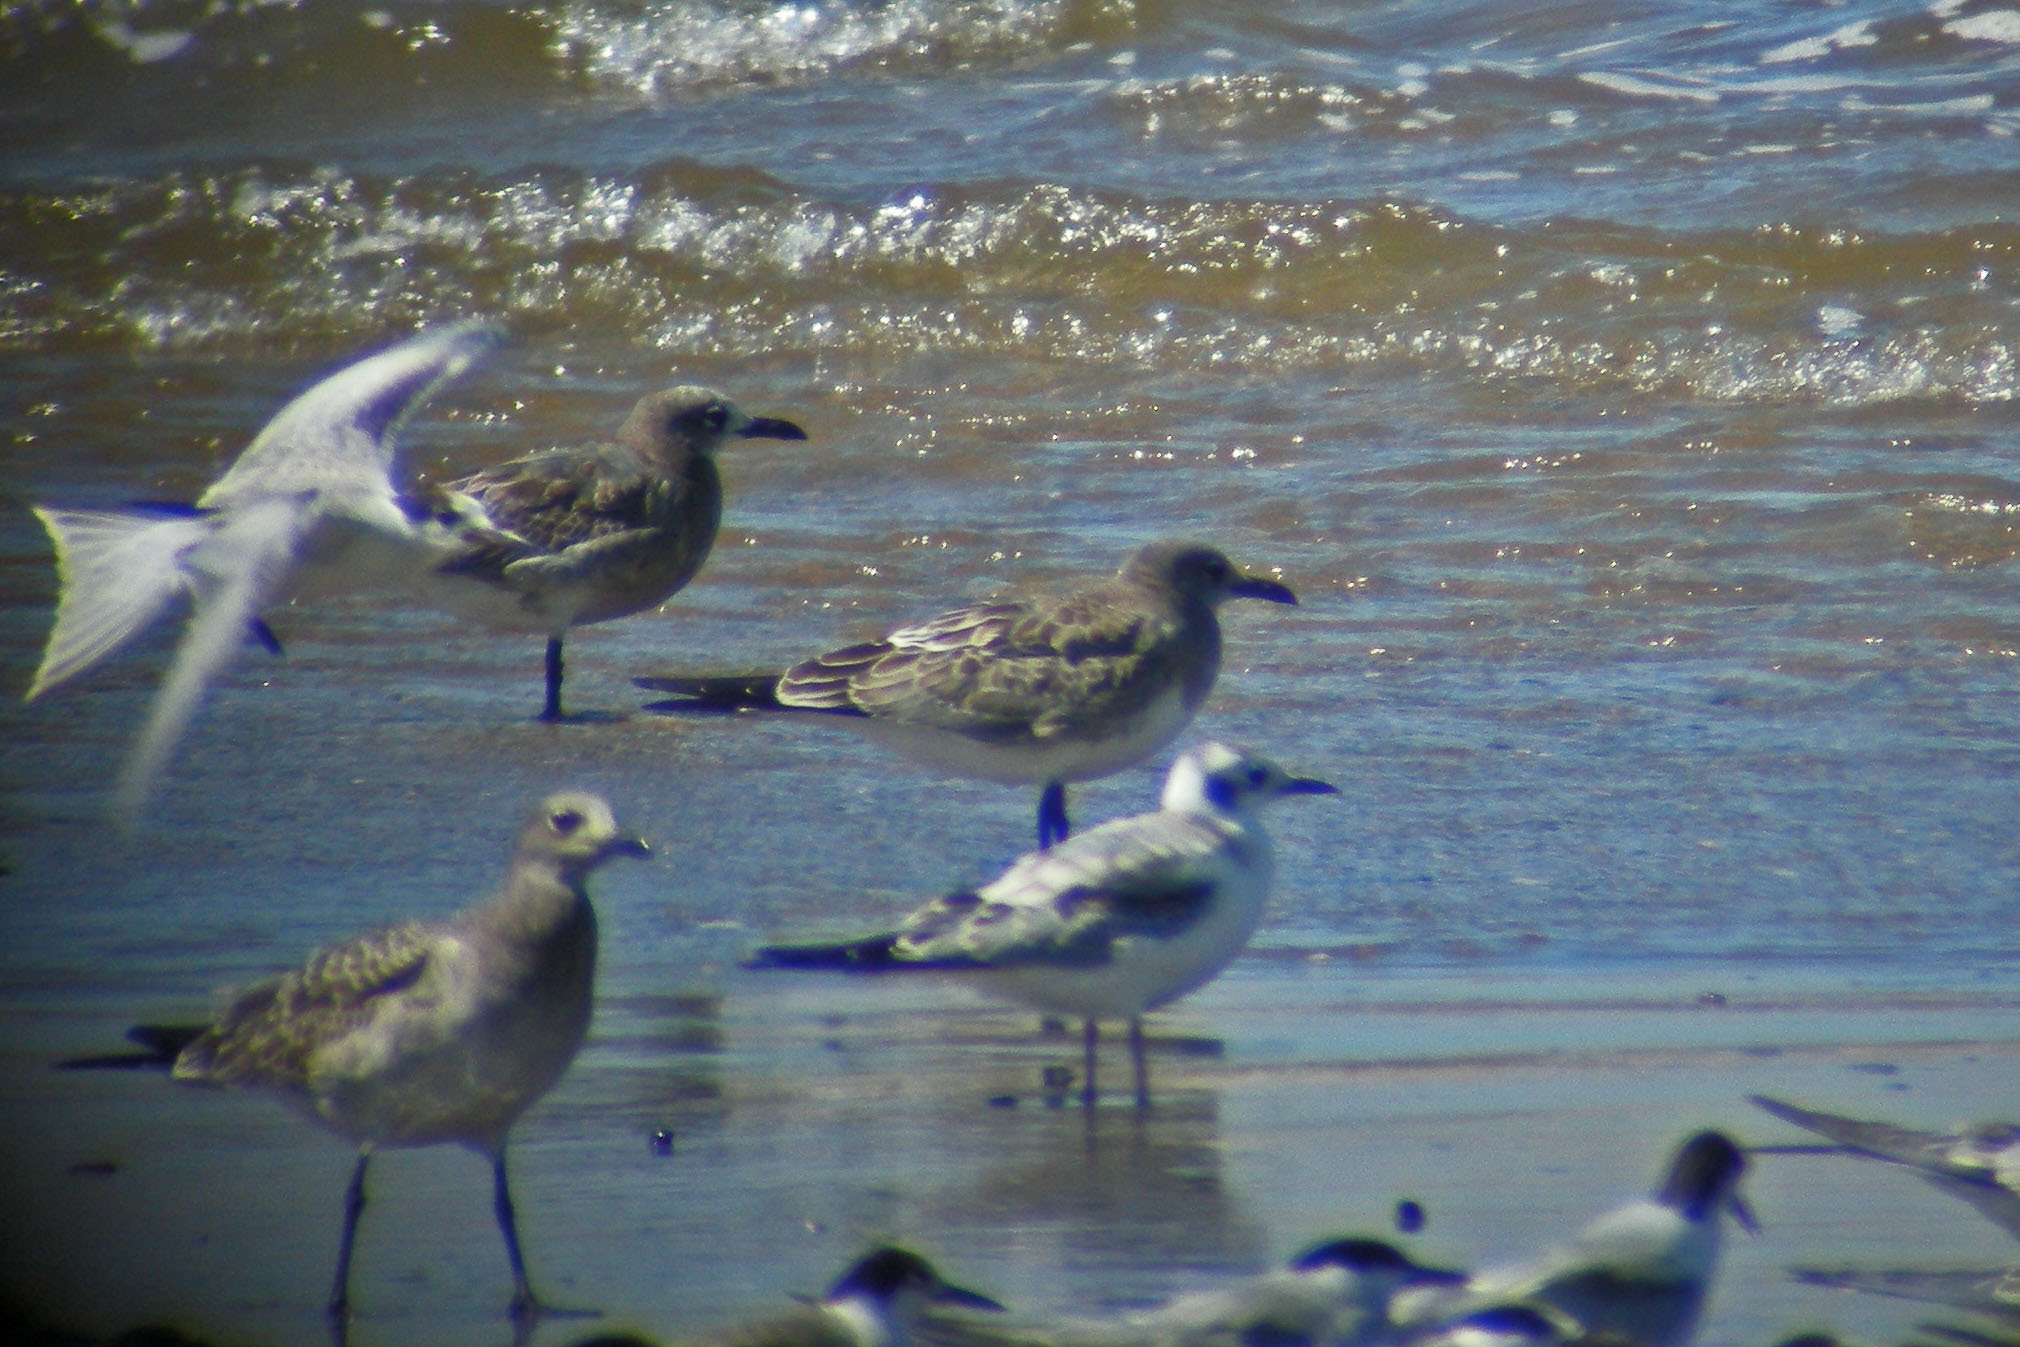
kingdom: Animalia
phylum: Chordata
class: Aves
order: Charadriiformes
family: Laridae
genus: Chroicocephalus
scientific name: Chroicocephalus philadelphia
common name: Bonaparte's gull
